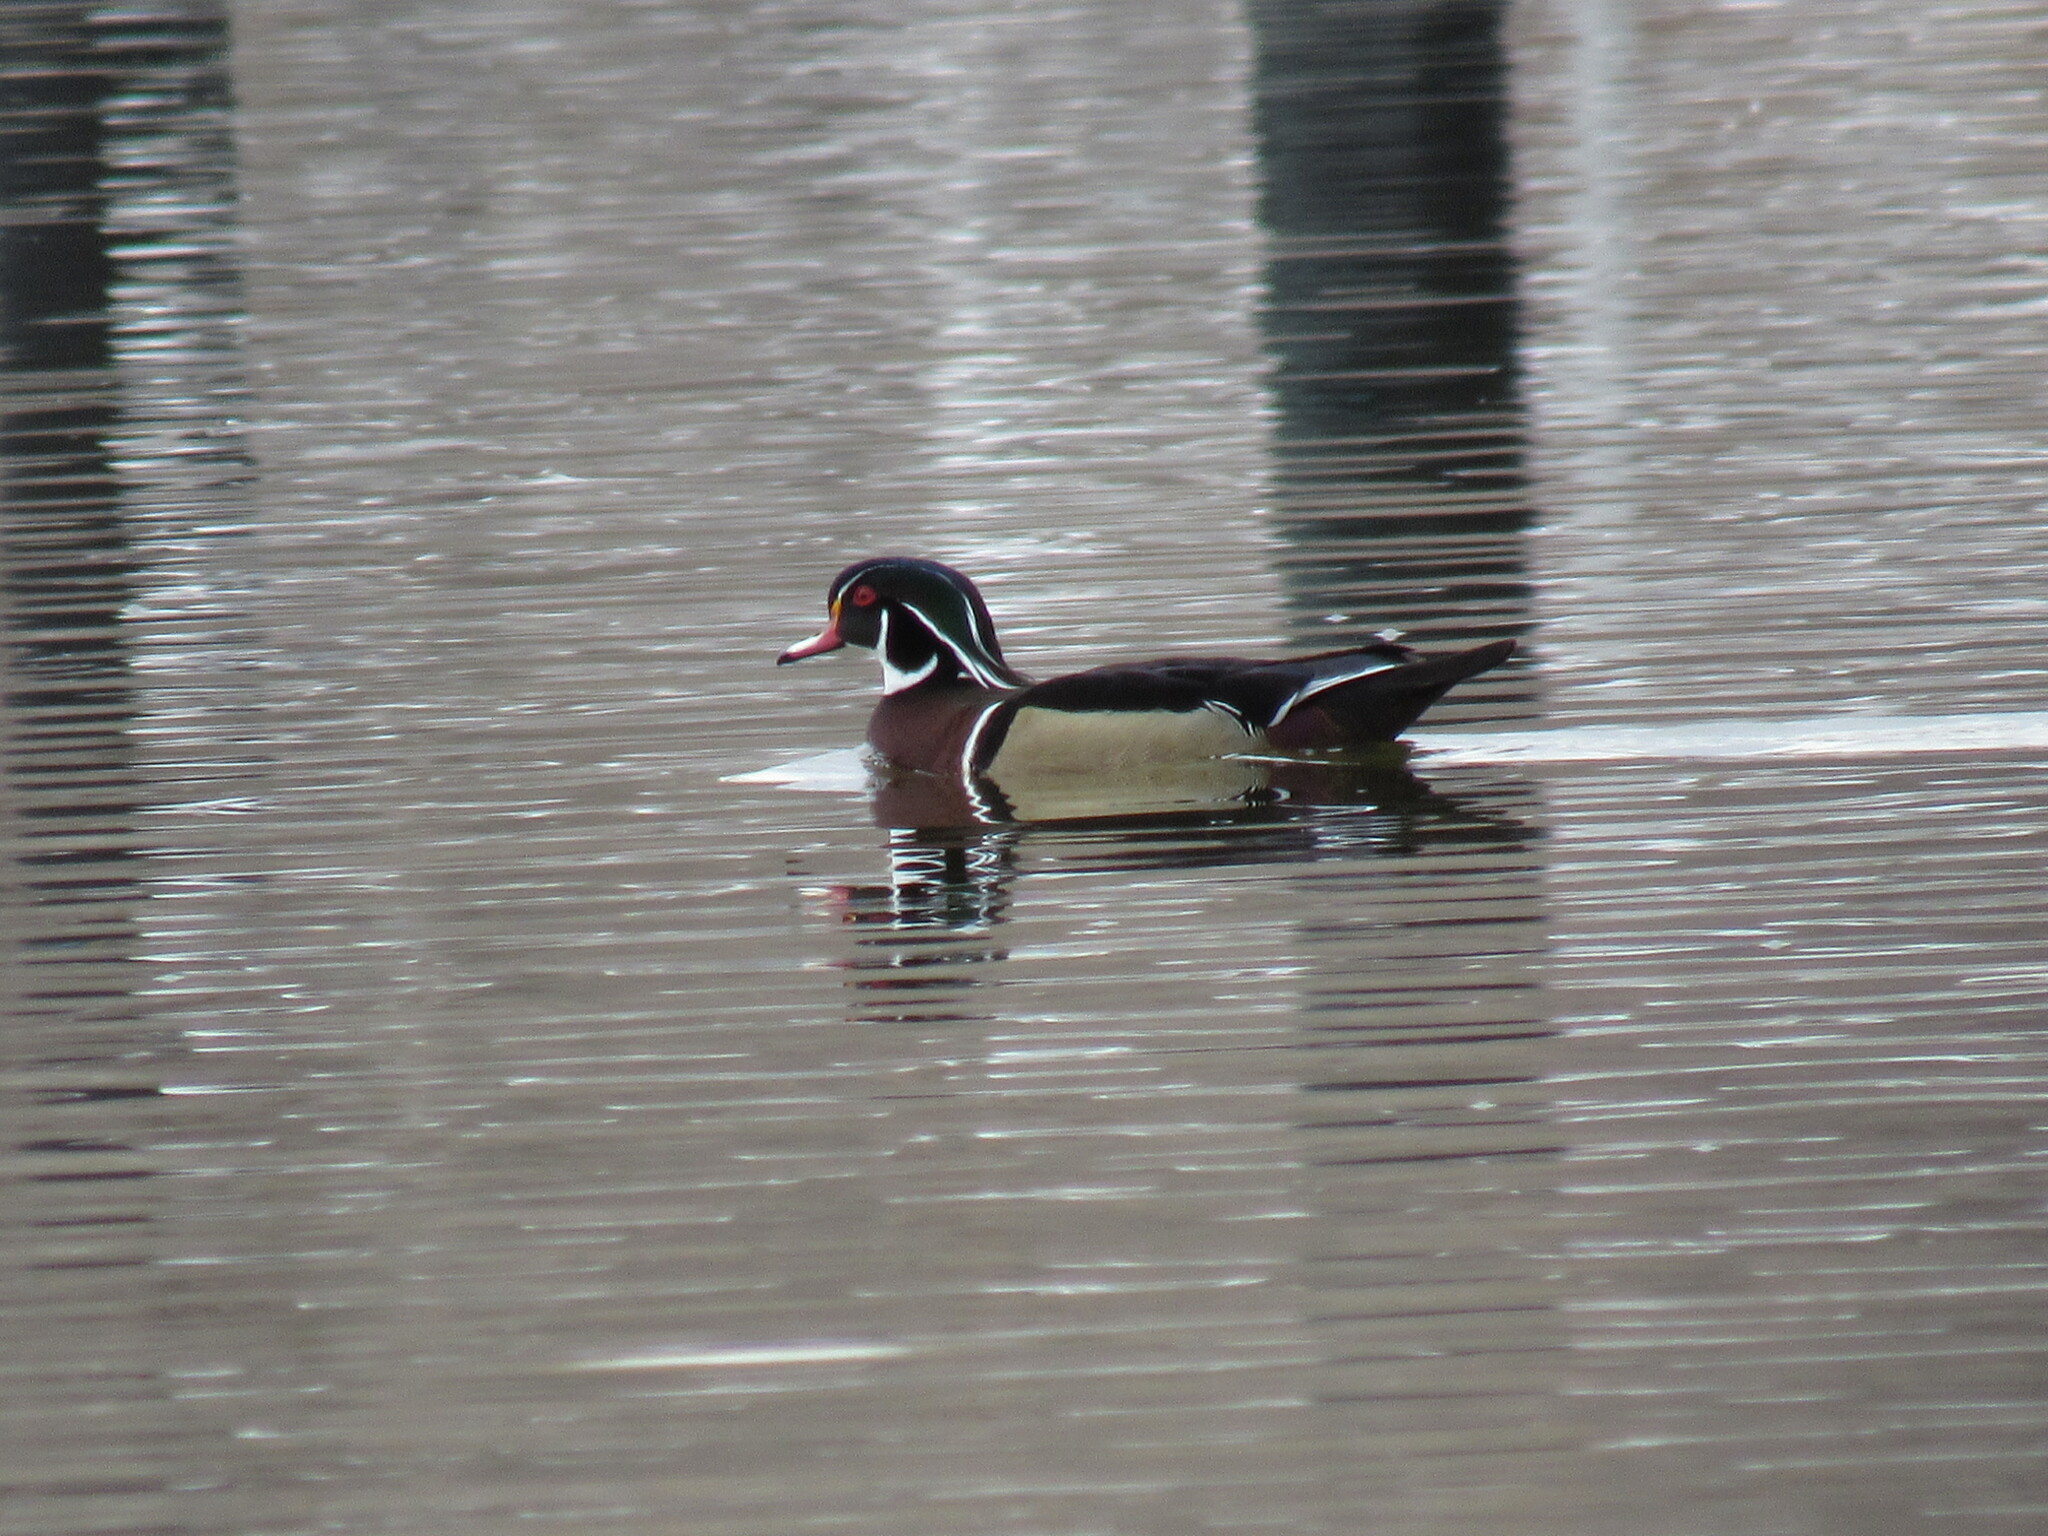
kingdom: Animalia
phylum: Chordata
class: Aves
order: Anseriformes
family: Anatidae
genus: Aix
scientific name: Aix sponsa
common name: Wood duck
